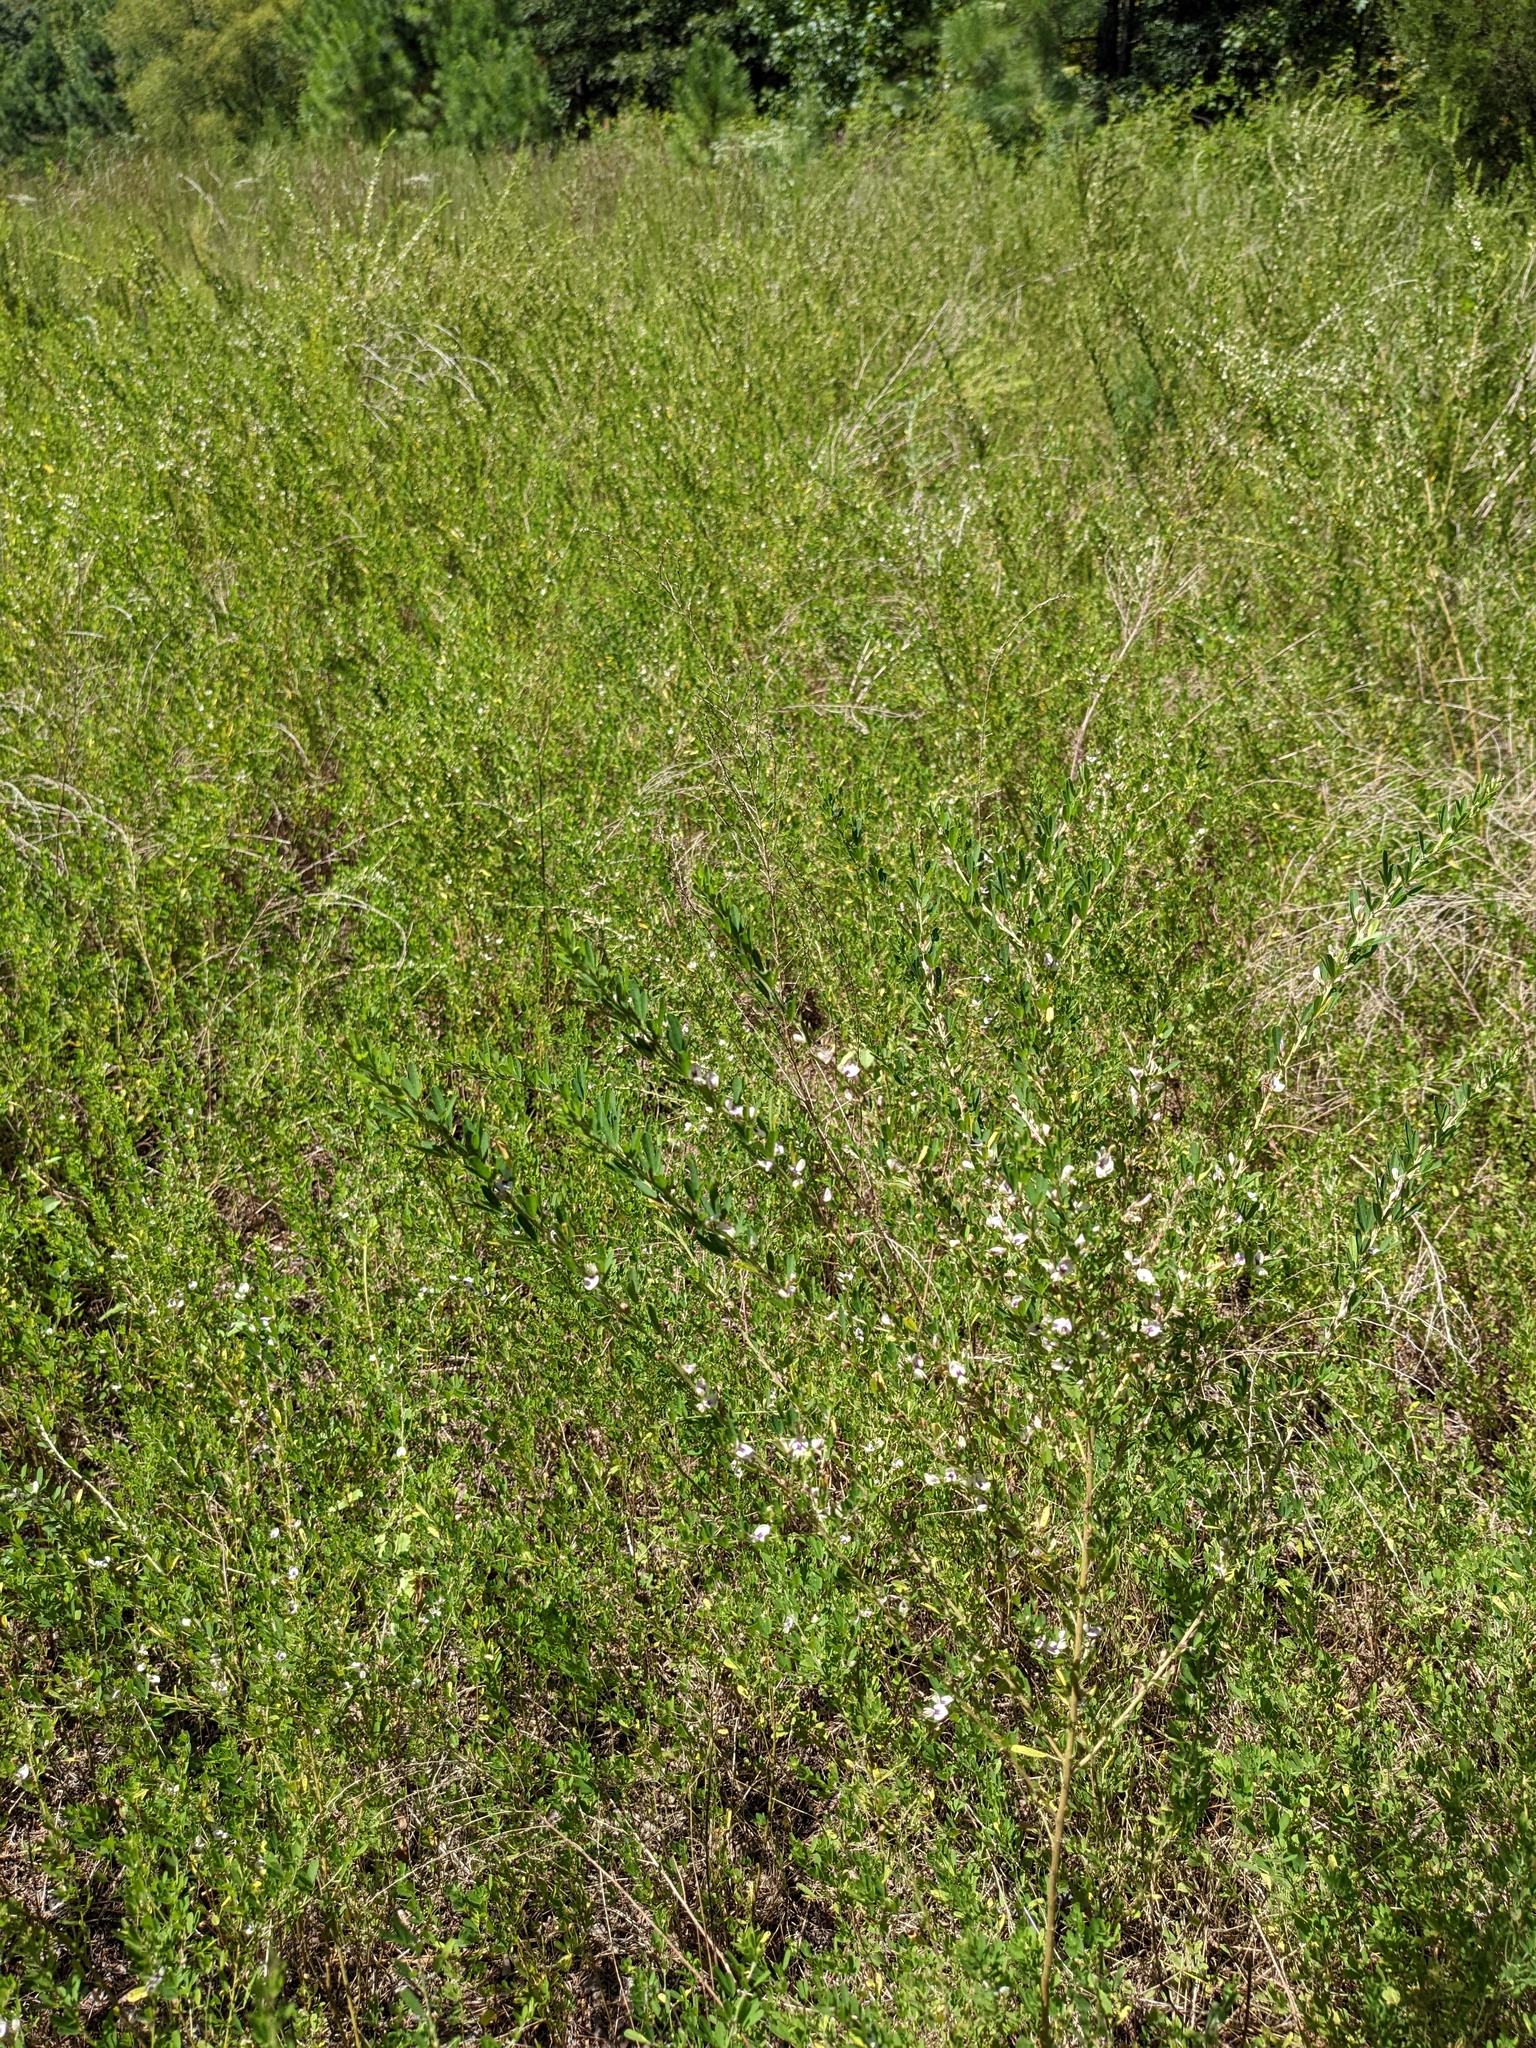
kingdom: Plantae
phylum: Tracheophyta
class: Magnoliopsida
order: Fabales
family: Fabaceae
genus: Lespedeza
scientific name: Lespedeza cuneata
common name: Chinese bush-clover
